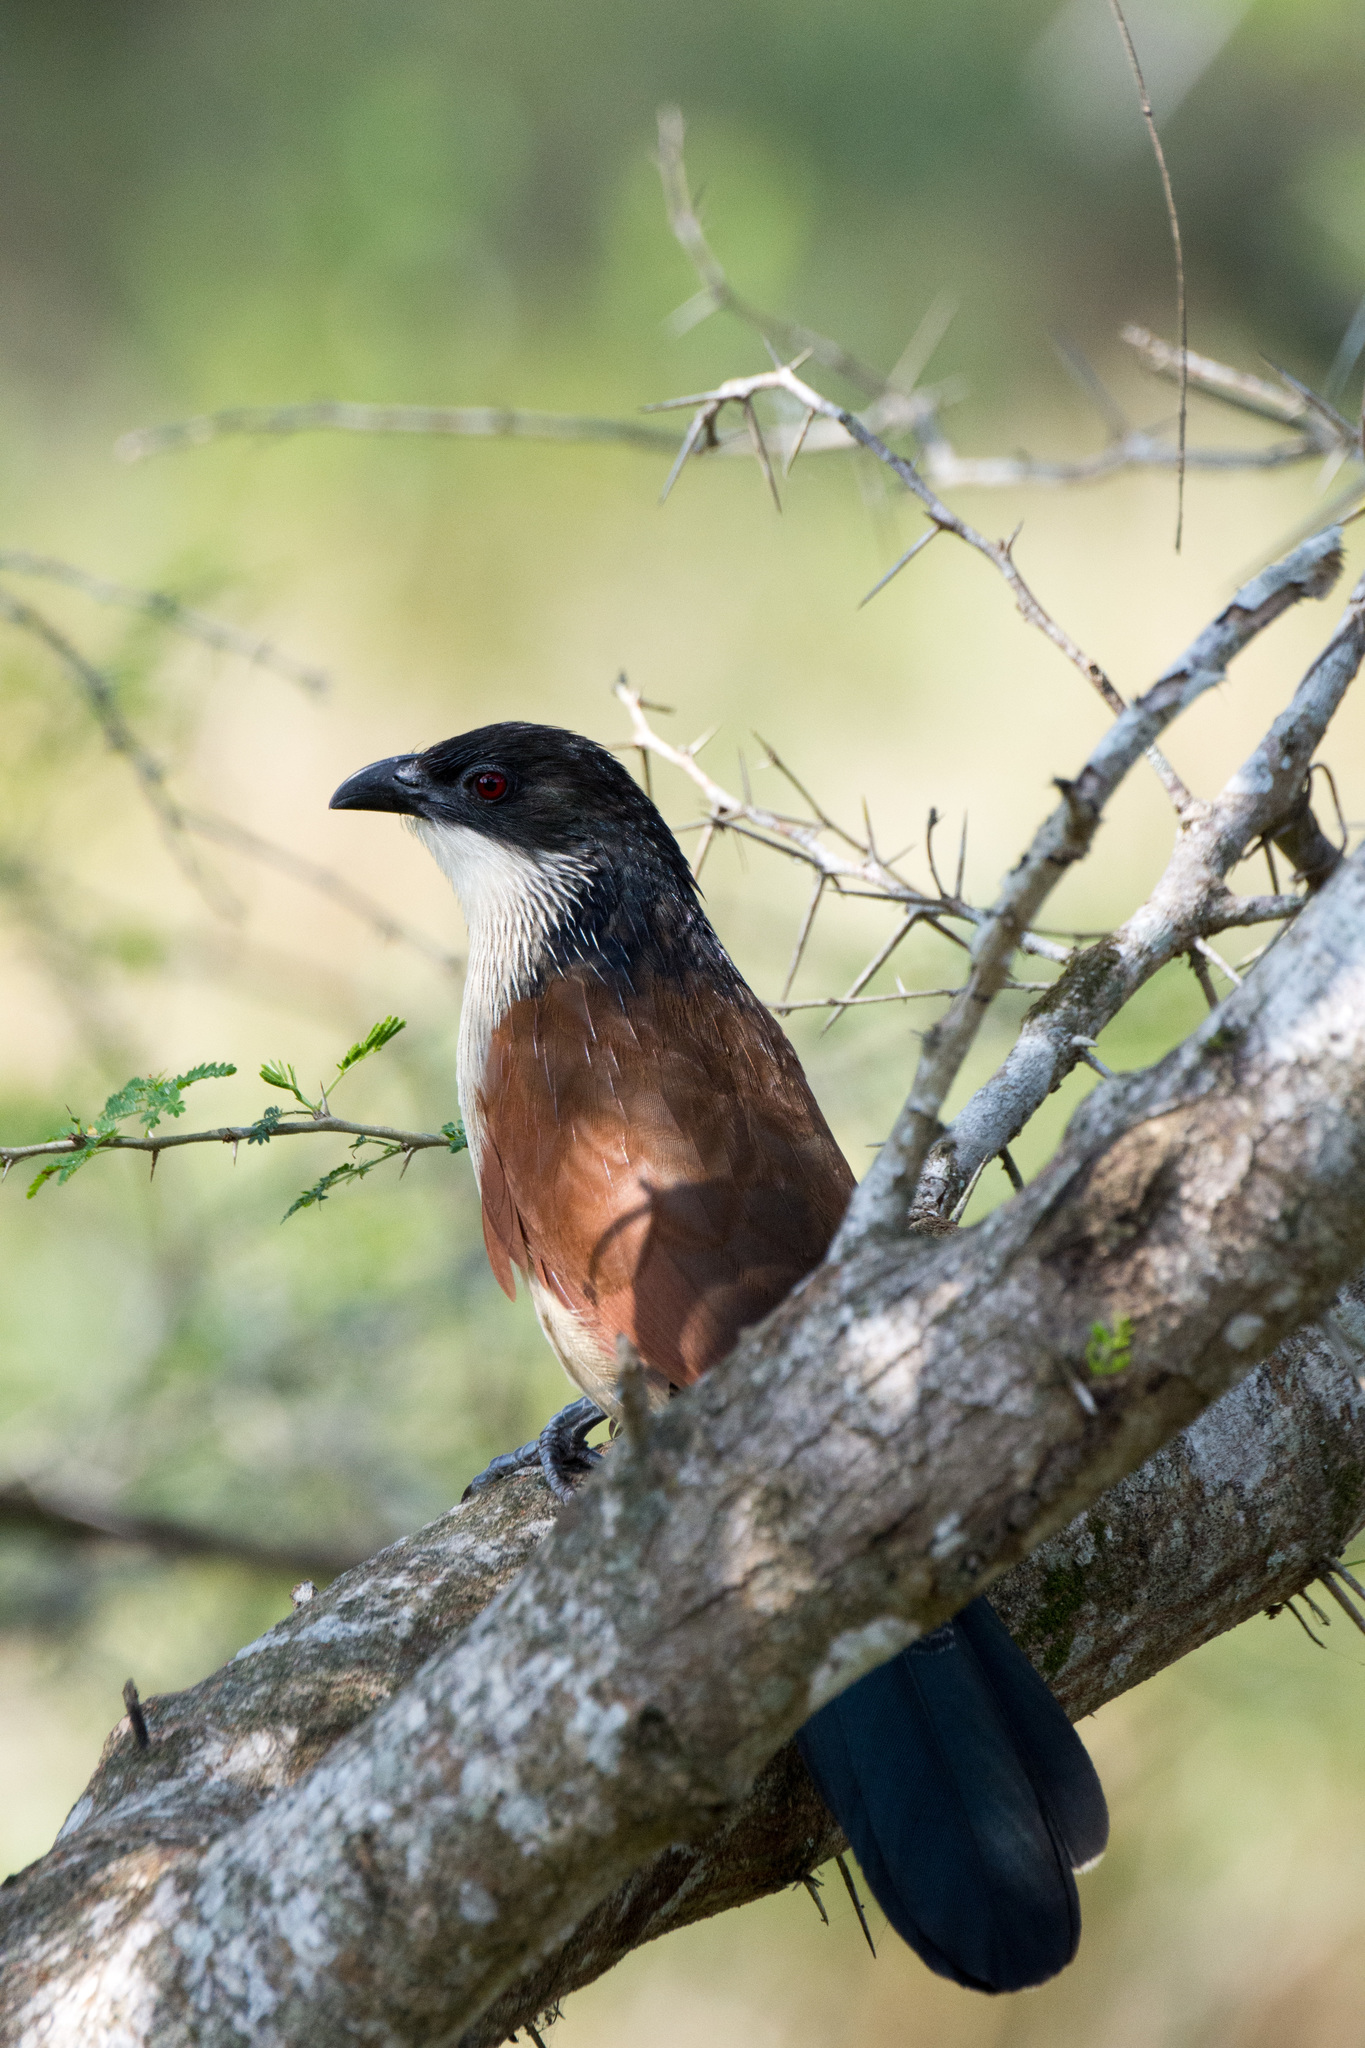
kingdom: Animalia
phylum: Chordata
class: Aves
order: Cuculiformes
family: Cuculidae
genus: Centropus
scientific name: Centropus superciliosus
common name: White-browed coucal
